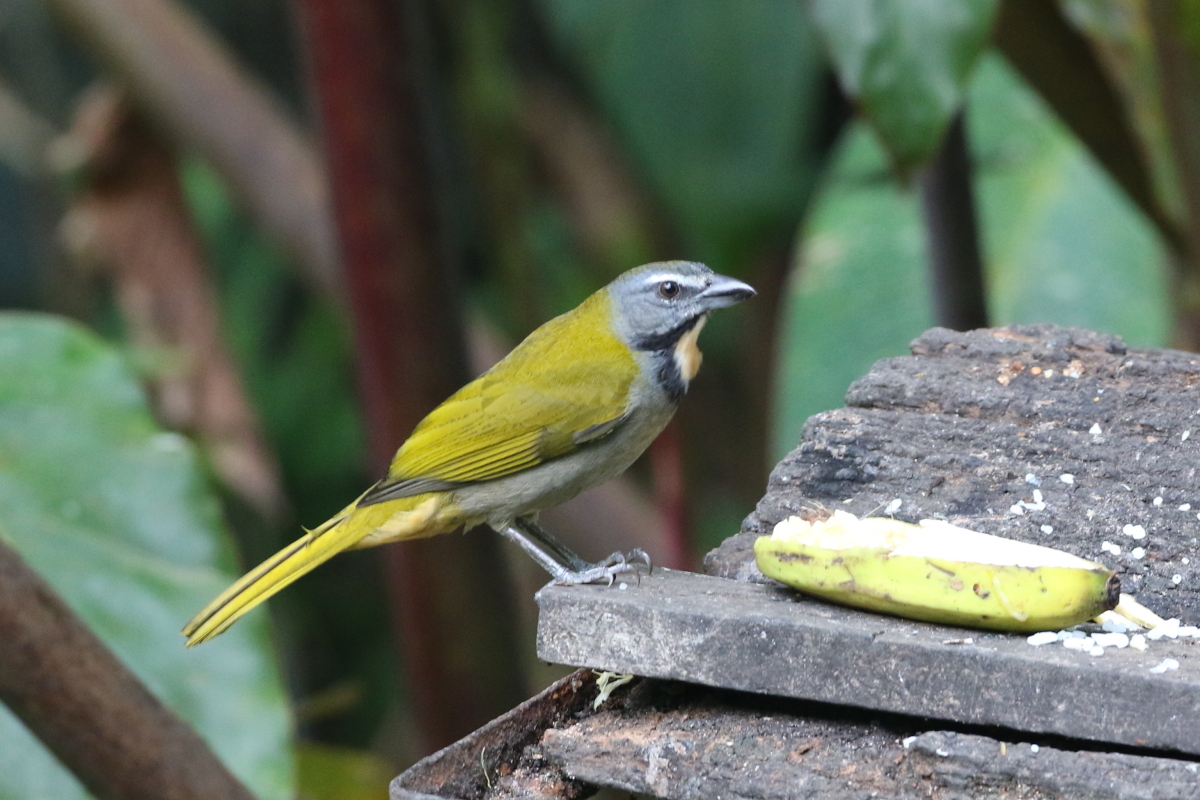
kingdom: Animalia
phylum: Chordata
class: Aves
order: Passeriformes
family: Thraupidae
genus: Saltator
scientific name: Saltator maximus
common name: Buff-throated saltator
